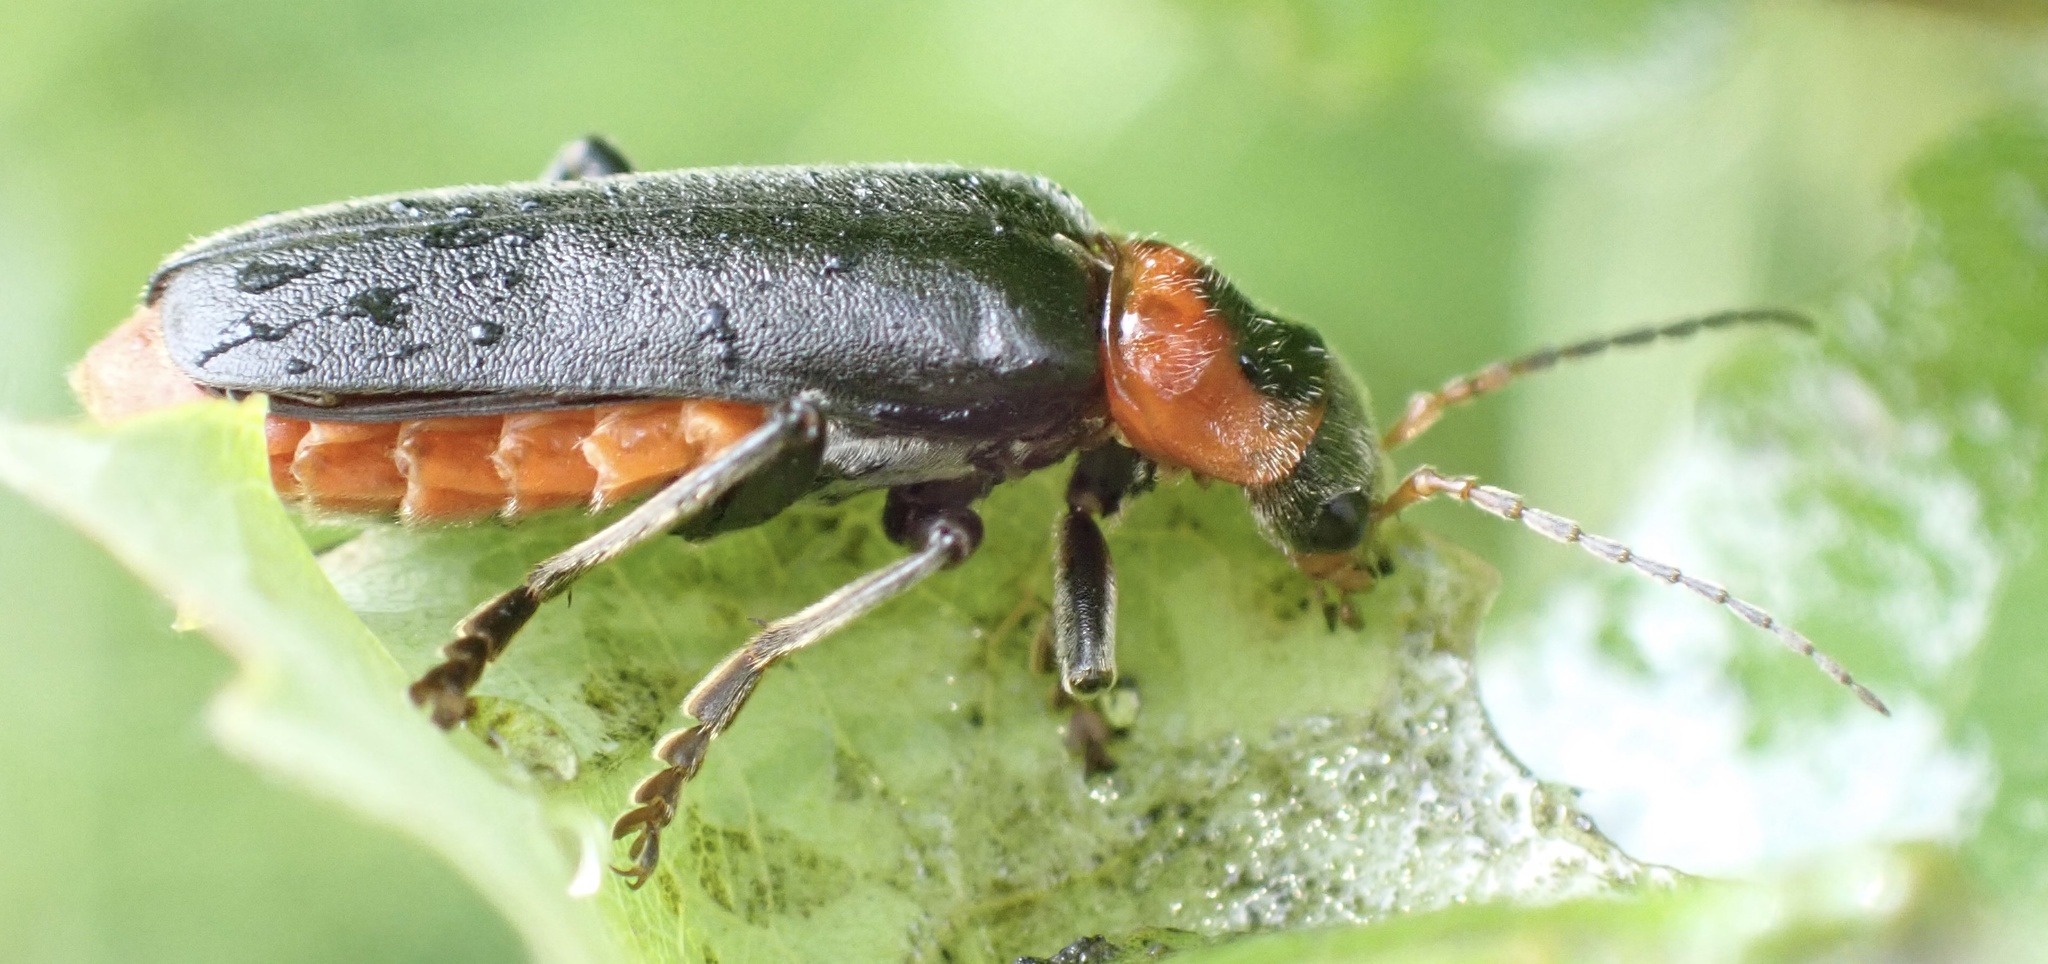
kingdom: Animalia
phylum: Arthropoda
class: Insecta
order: Coleoptera
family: Cantharidae
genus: Cantharis
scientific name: Cantharis fusca
